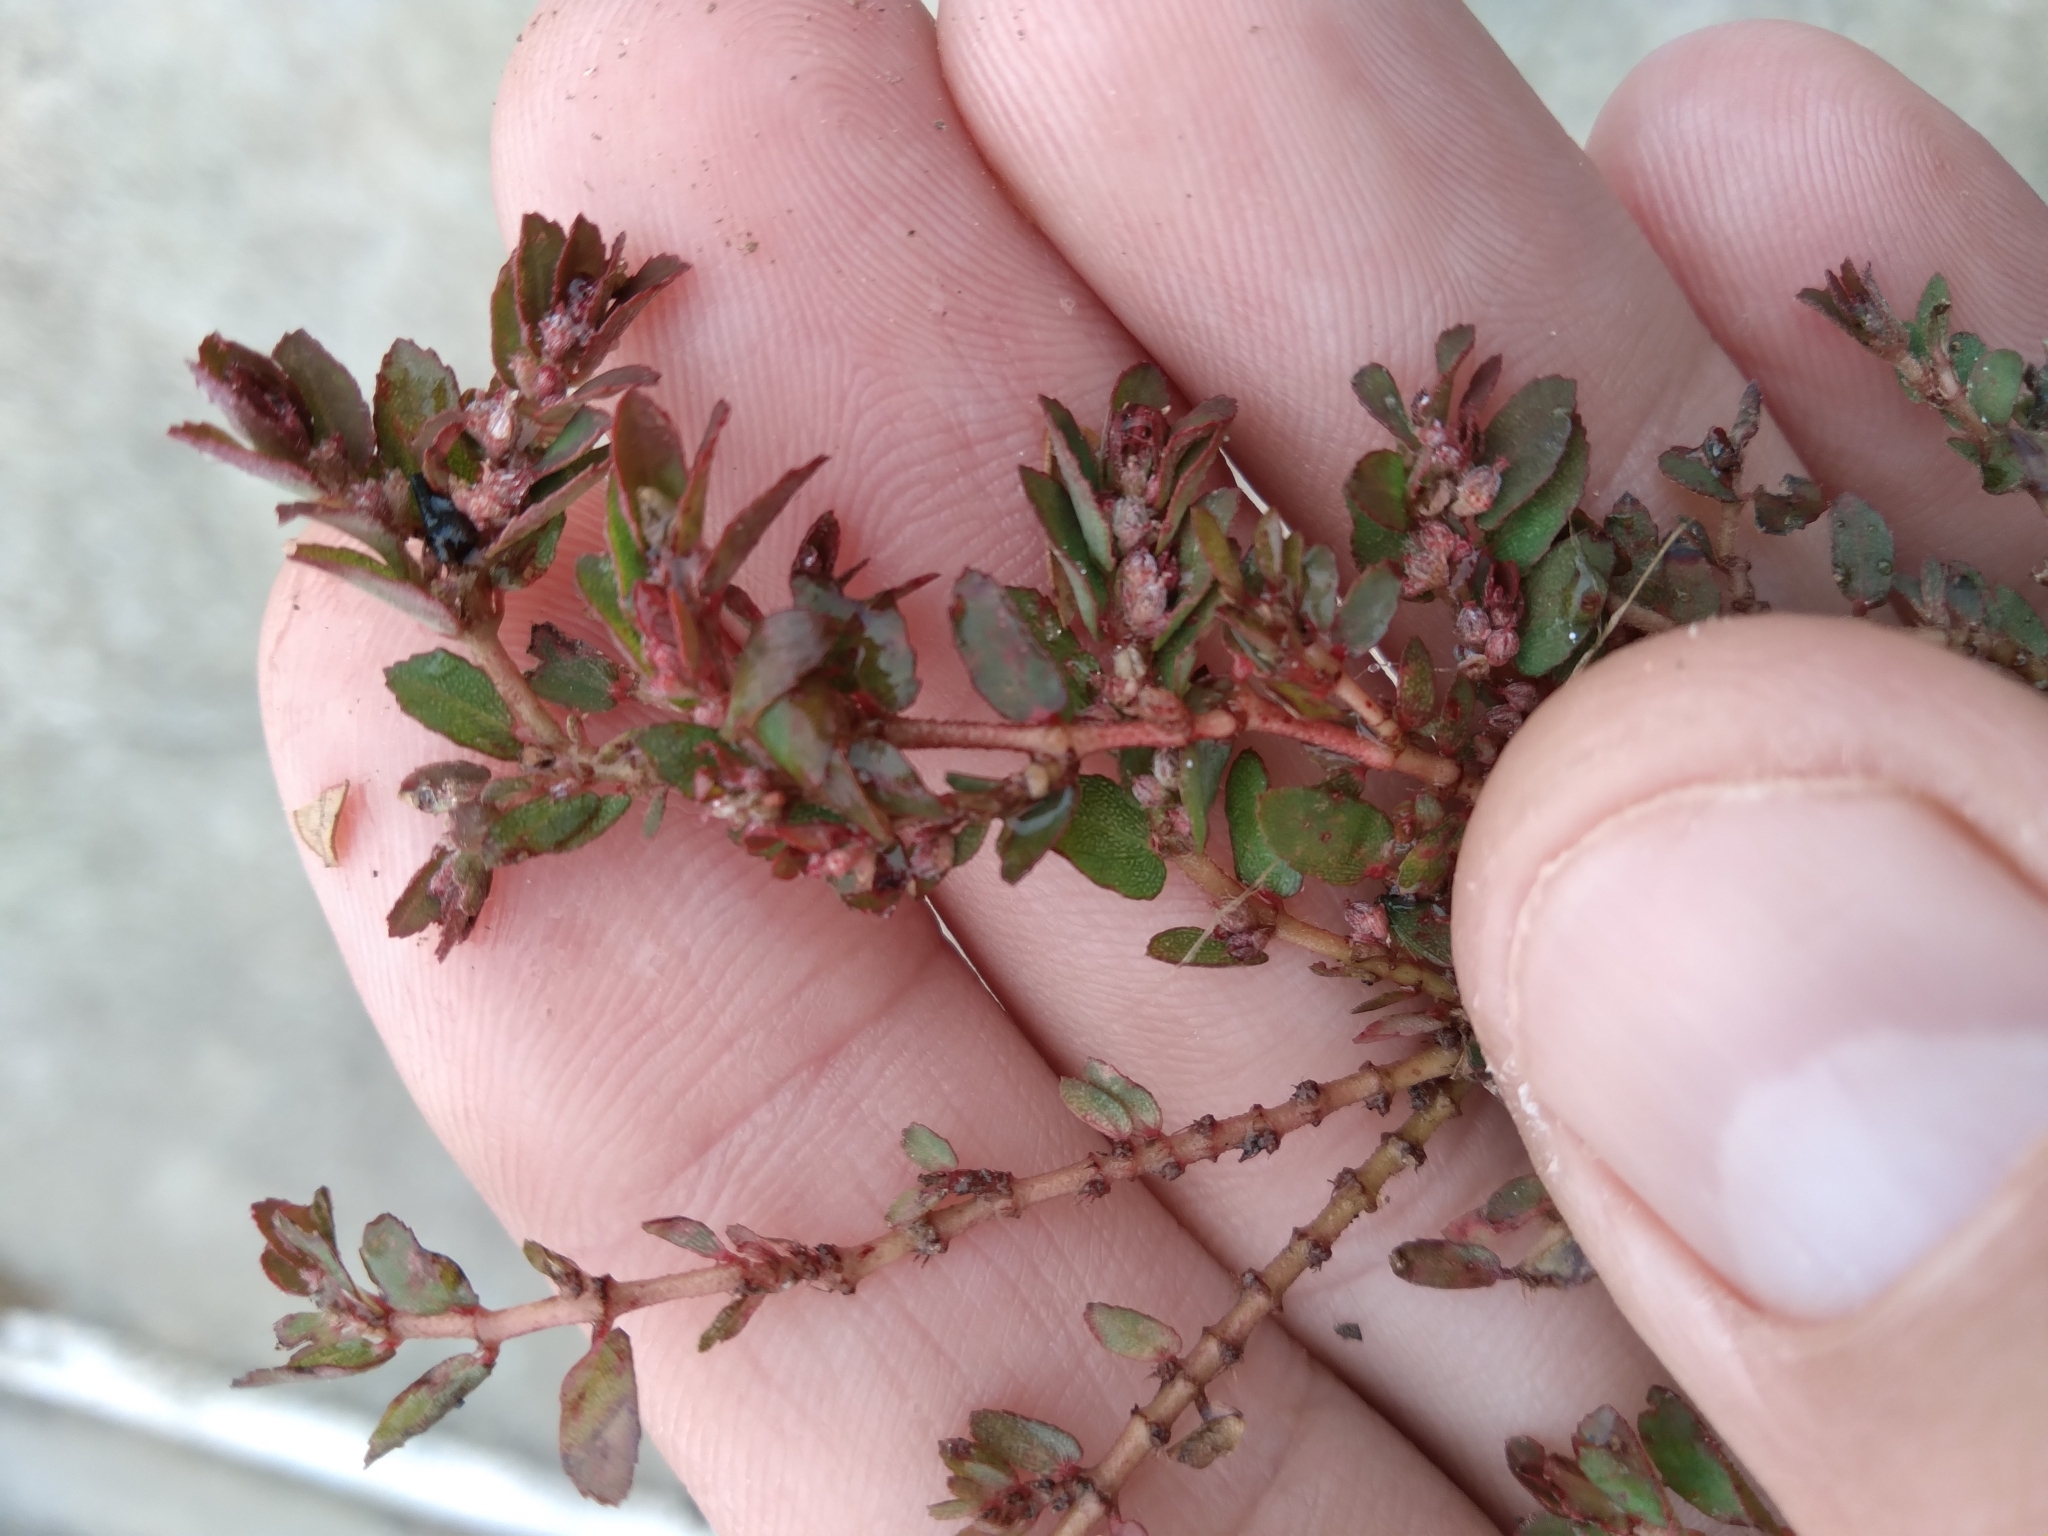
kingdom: Plantae
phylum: Tracheophyta
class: Magnoliopsida
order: Malpighiales
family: Euphorbiaceae
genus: Euphorbia
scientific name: Euphorbia thymifolia
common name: Gulf sandmat
